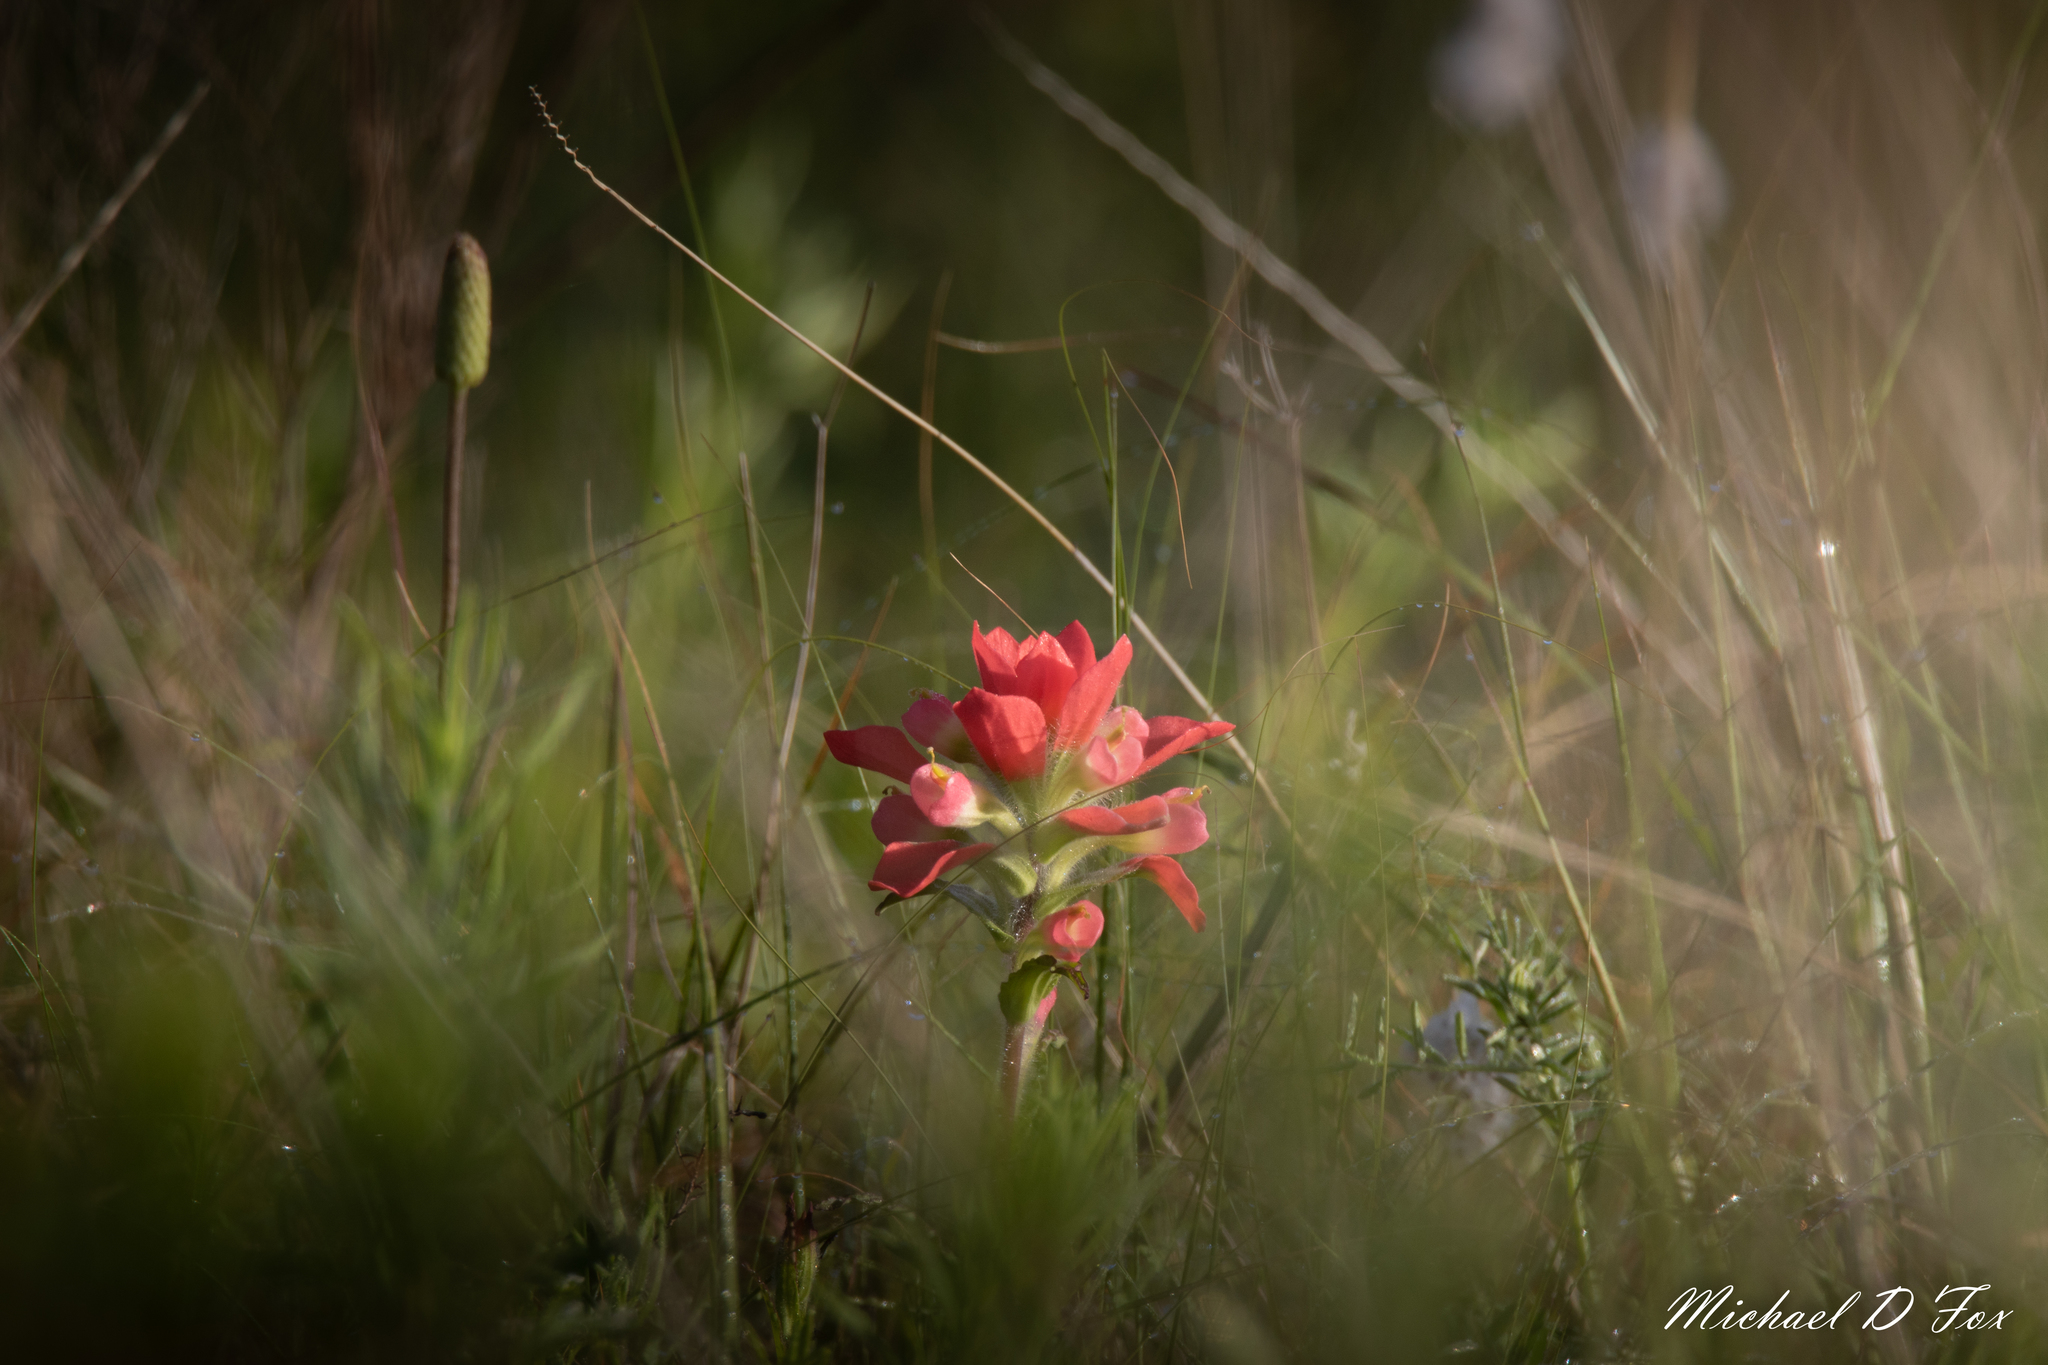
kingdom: Plantae
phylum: Tracheophyta
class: Magnoliopsida
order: Lamiales
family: Orobanchaceae
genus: Castilleja
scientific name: Castilleja indivisa
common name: Texas paintbrush
